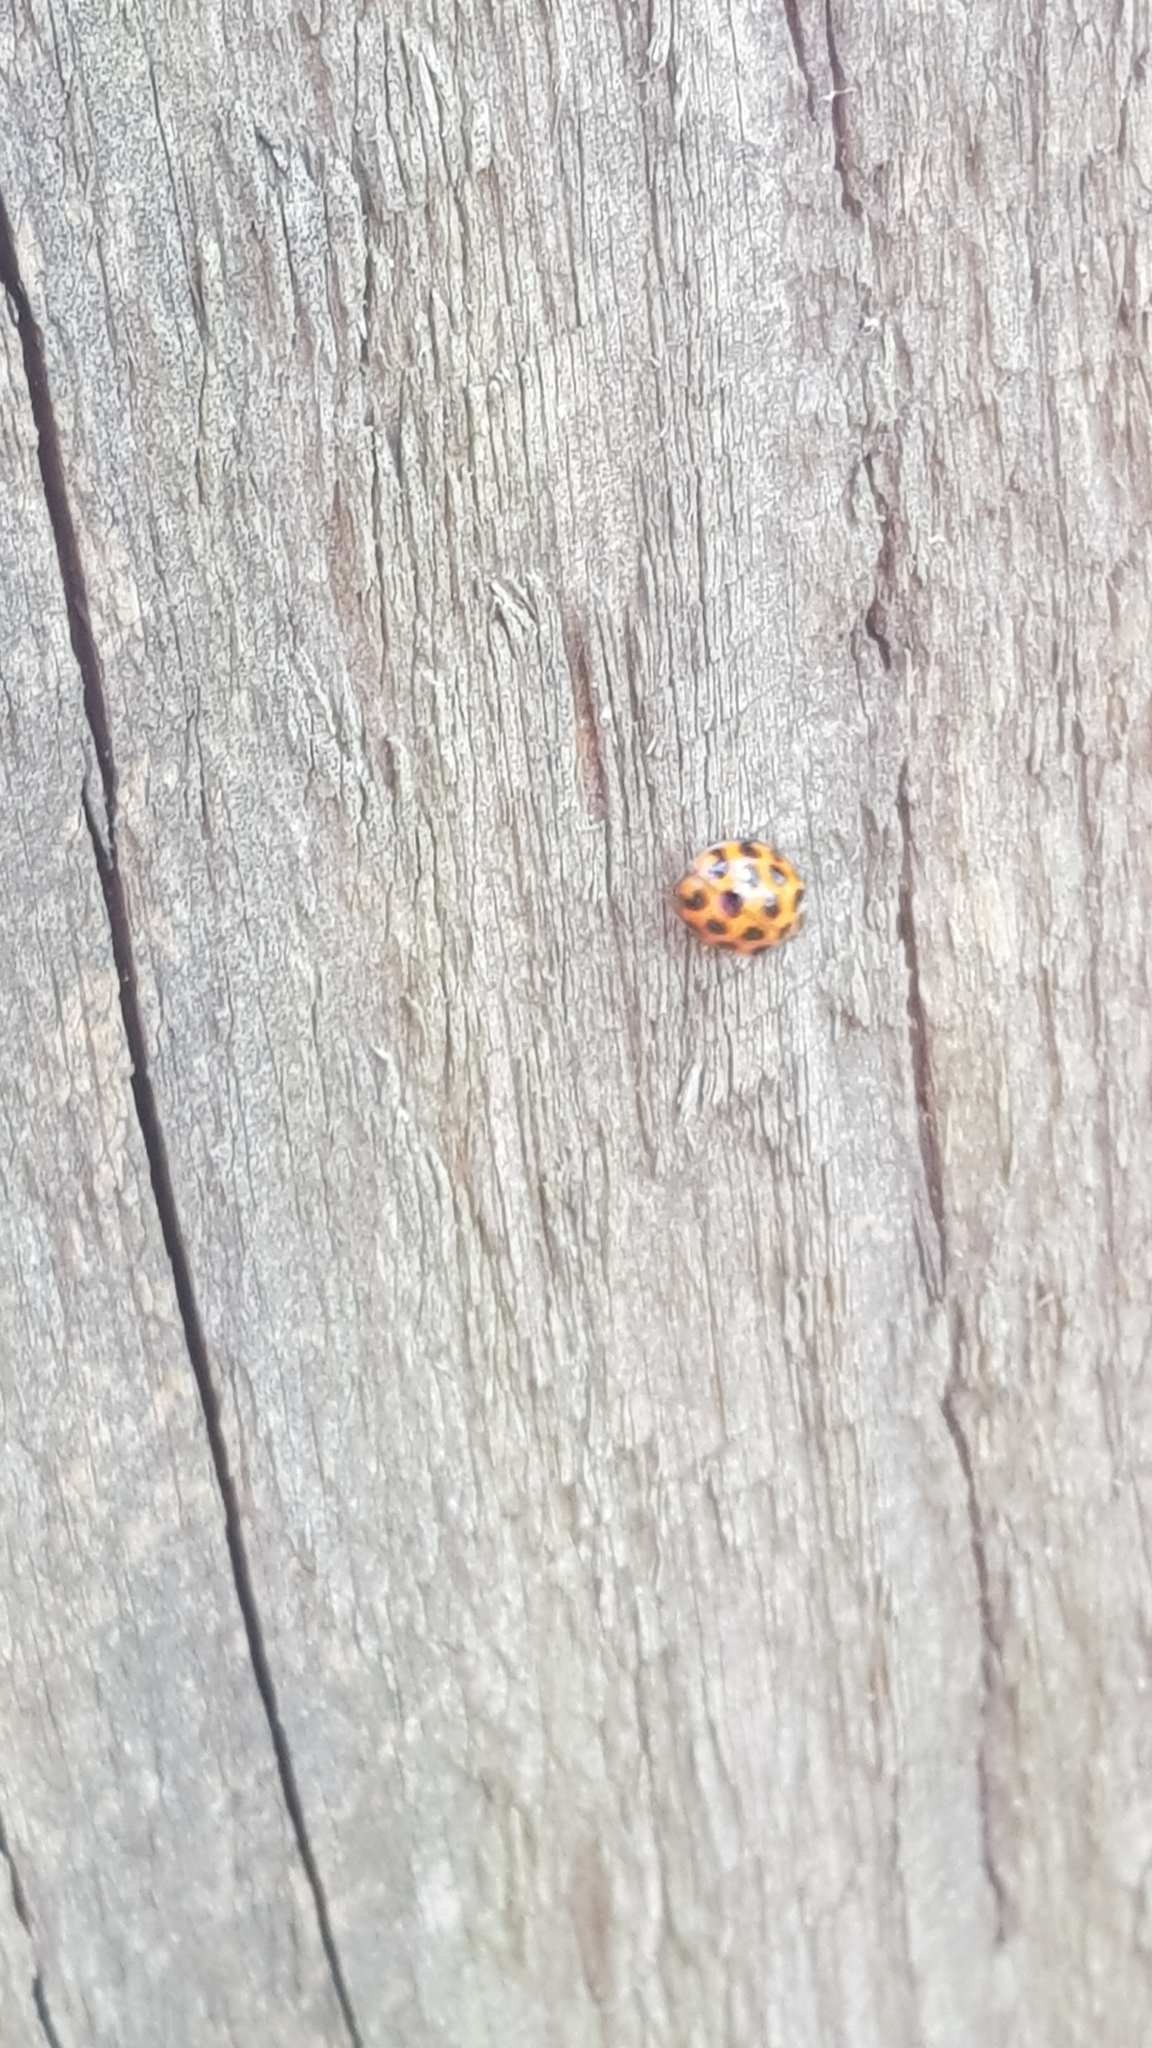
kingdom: Animalia
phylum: Arthropoda
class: Insecta
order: Coleoptera
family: Coccinellidae
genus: Harmonia
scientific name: Harmonia conformis
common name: Common spotted ladybird beetle
